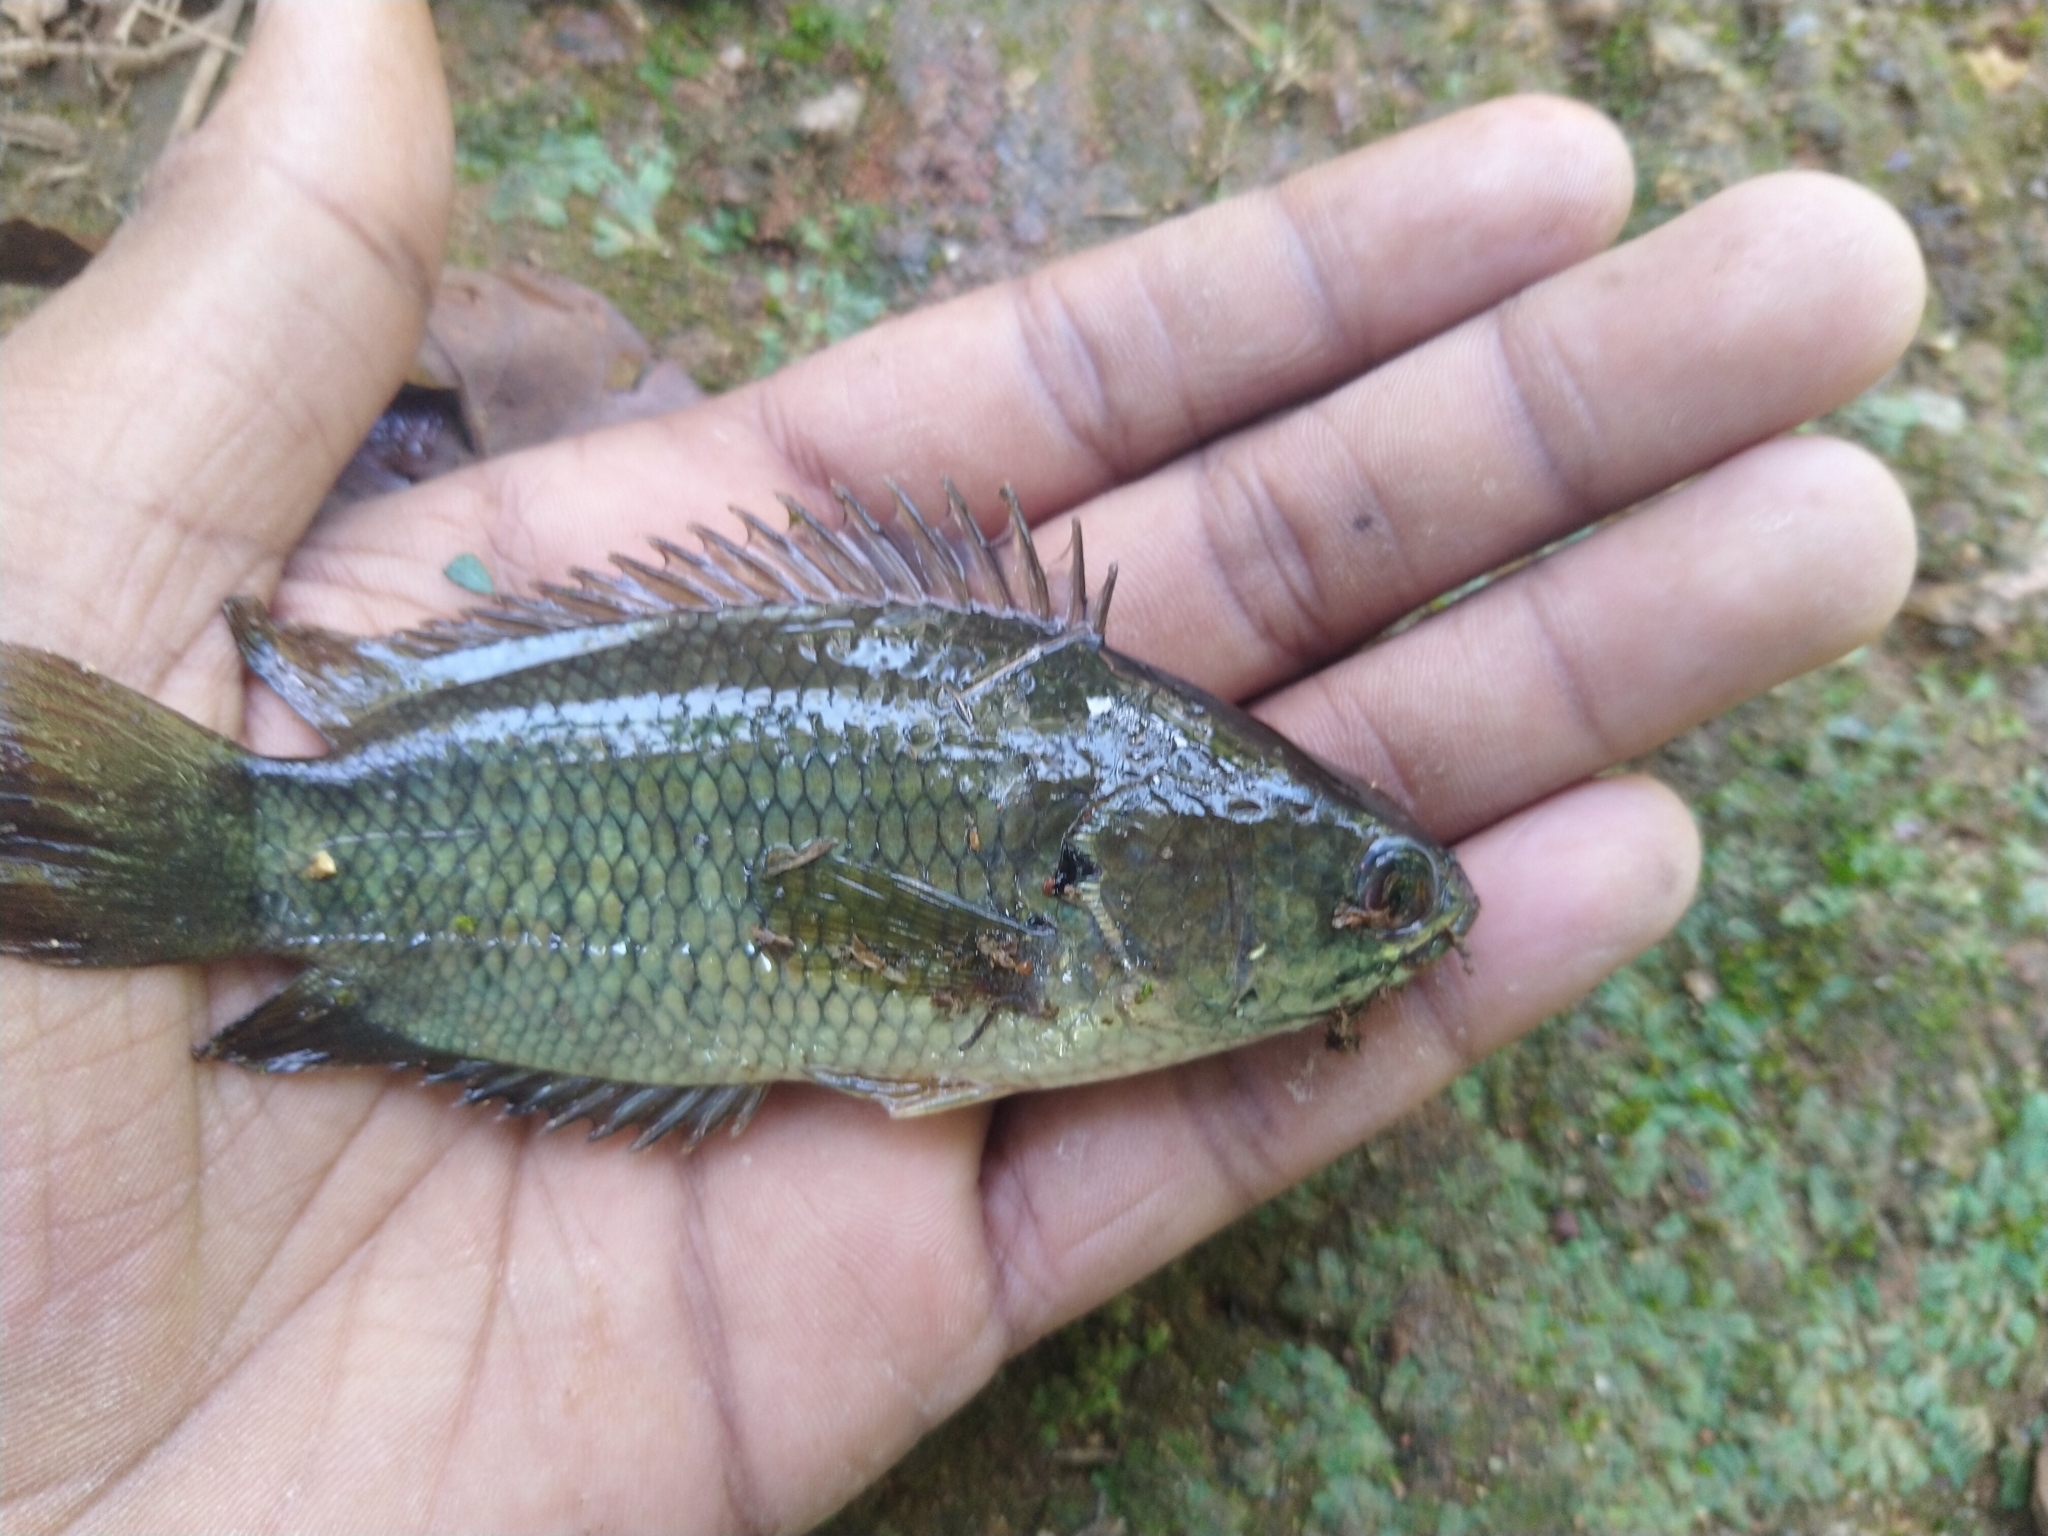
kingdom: Animalia
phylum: Chordata
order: Perciformes
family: Anabantidae
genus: Anabas
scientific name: Anabas testudineus
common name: Climbing perch
